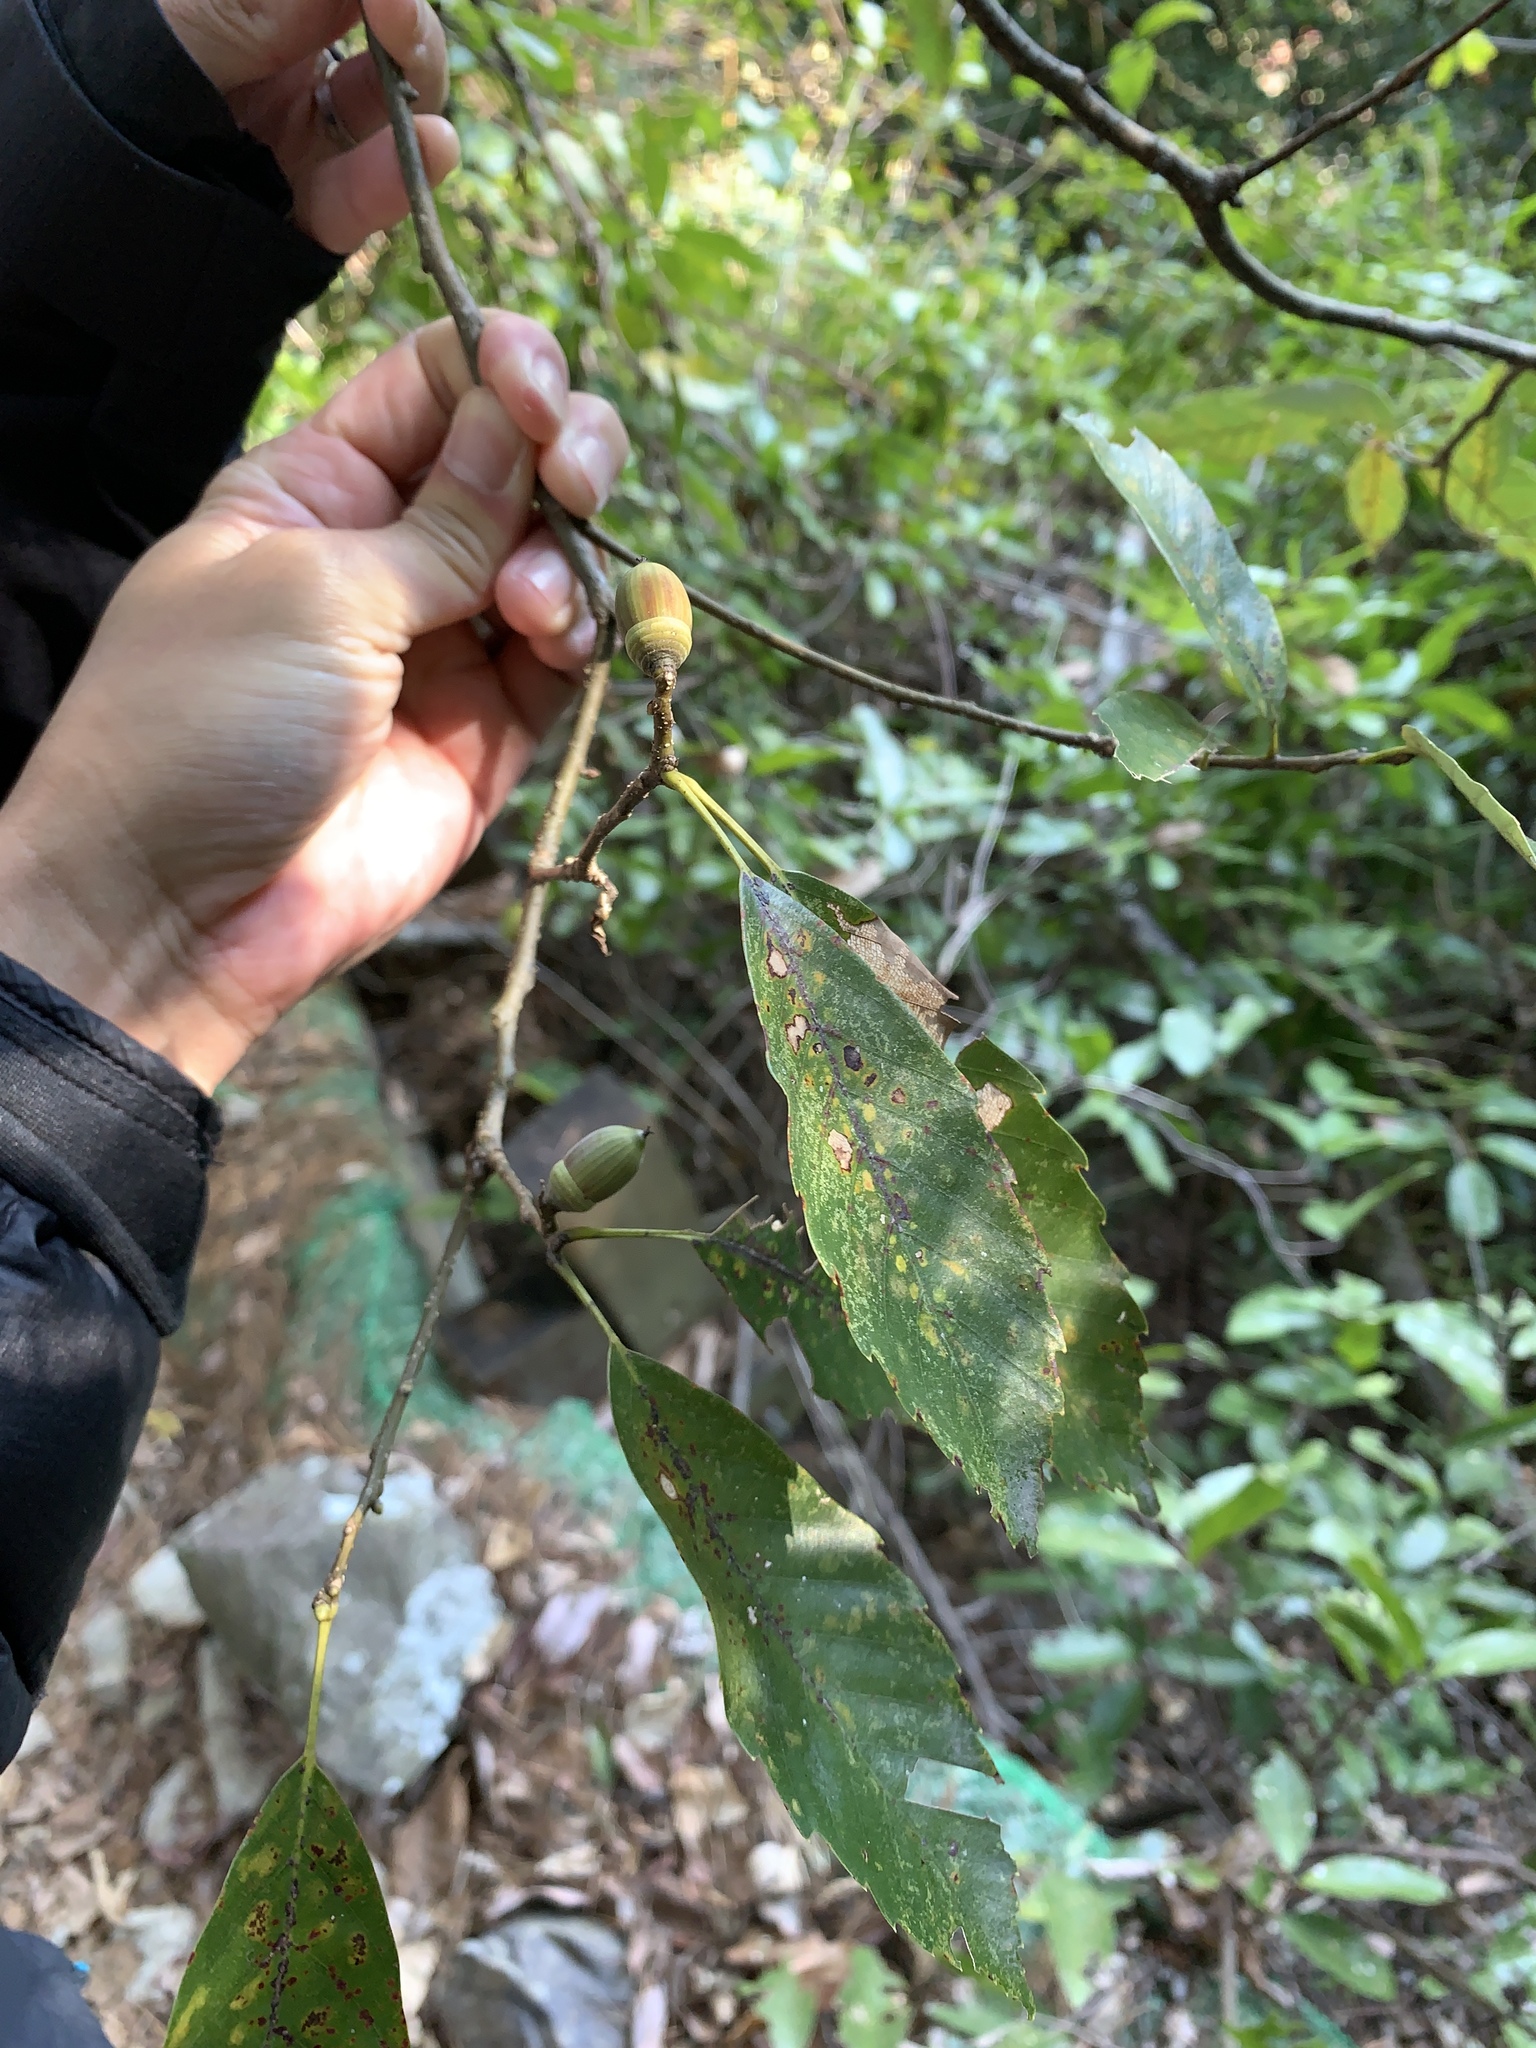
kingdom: Plantae
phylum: Tracheophyta
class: Magnoliopsida
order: Fagales
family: Fagaceae
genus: Quercus
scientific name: Quercus glauca
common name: Ring-cup oak
